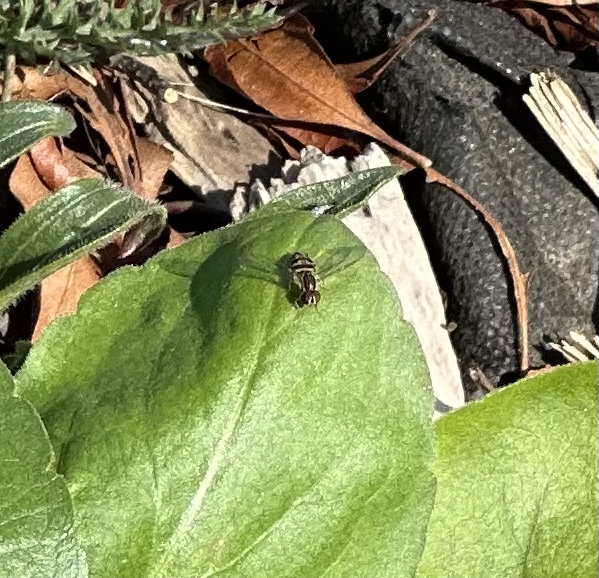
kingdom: Animalia
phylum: Arthropoda
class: Insecta
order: Diptera
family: Syrphidae
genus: Toxomerus
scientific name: Toxomerus geminatus
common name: Eastern calligrapher
